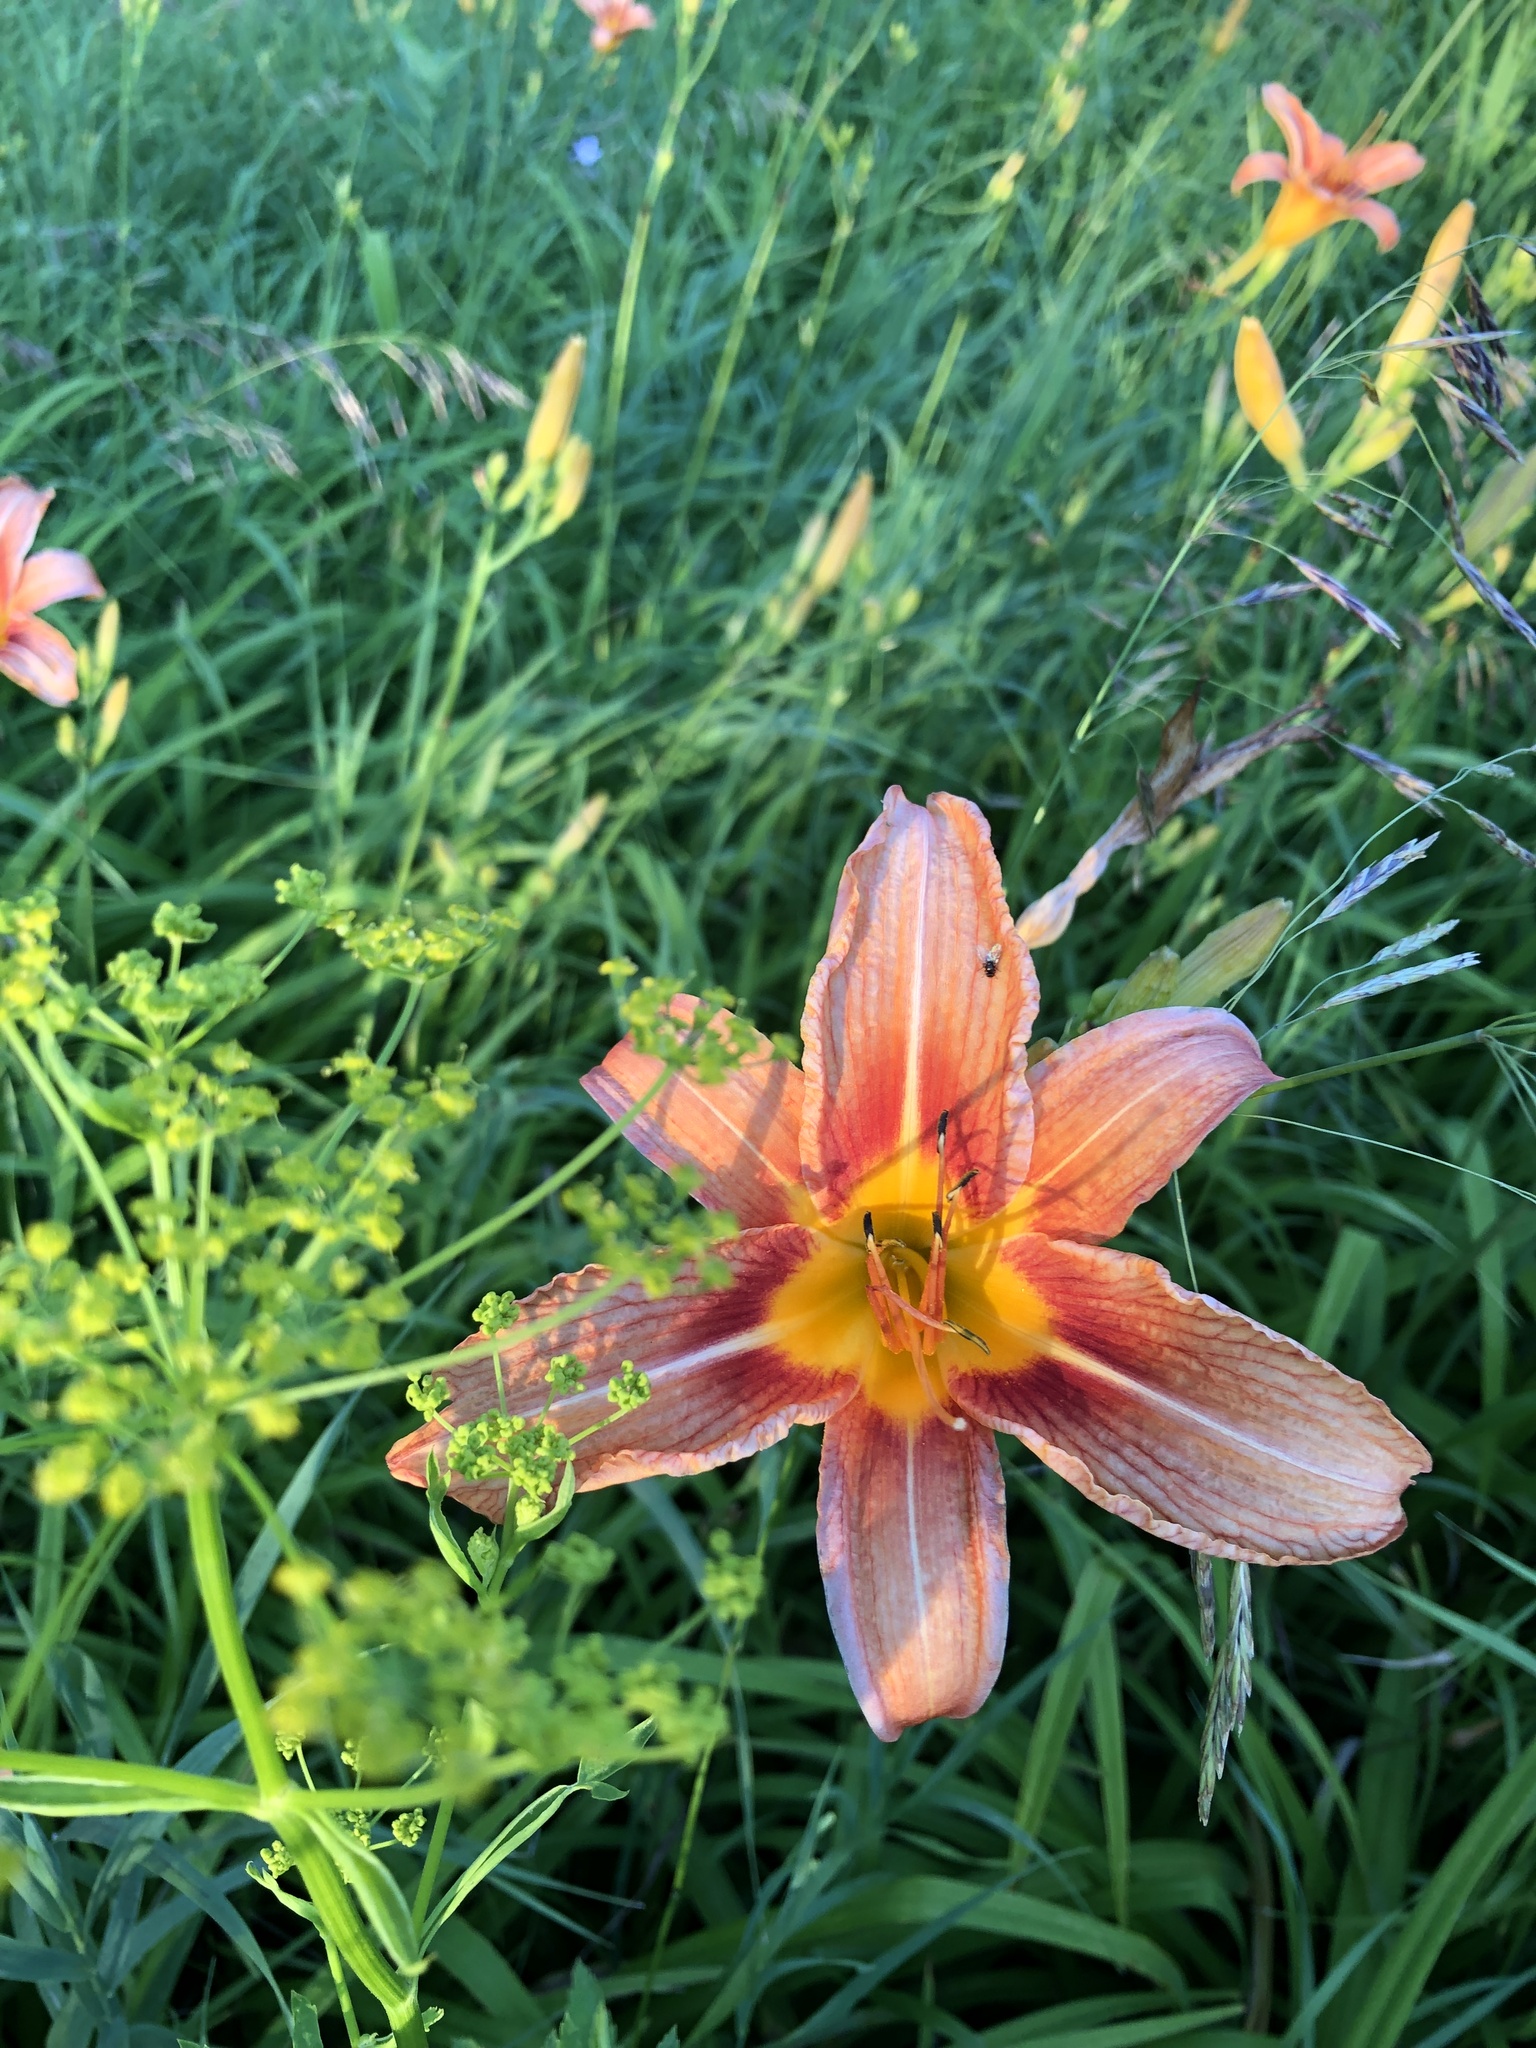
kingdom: Plantae
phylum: Tracheophyta
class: Liliopsida
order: Asparagales
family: Asphodelaceae
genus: Hemerocallis
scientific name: Hemerocallis fulva
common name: Orange day-lily
